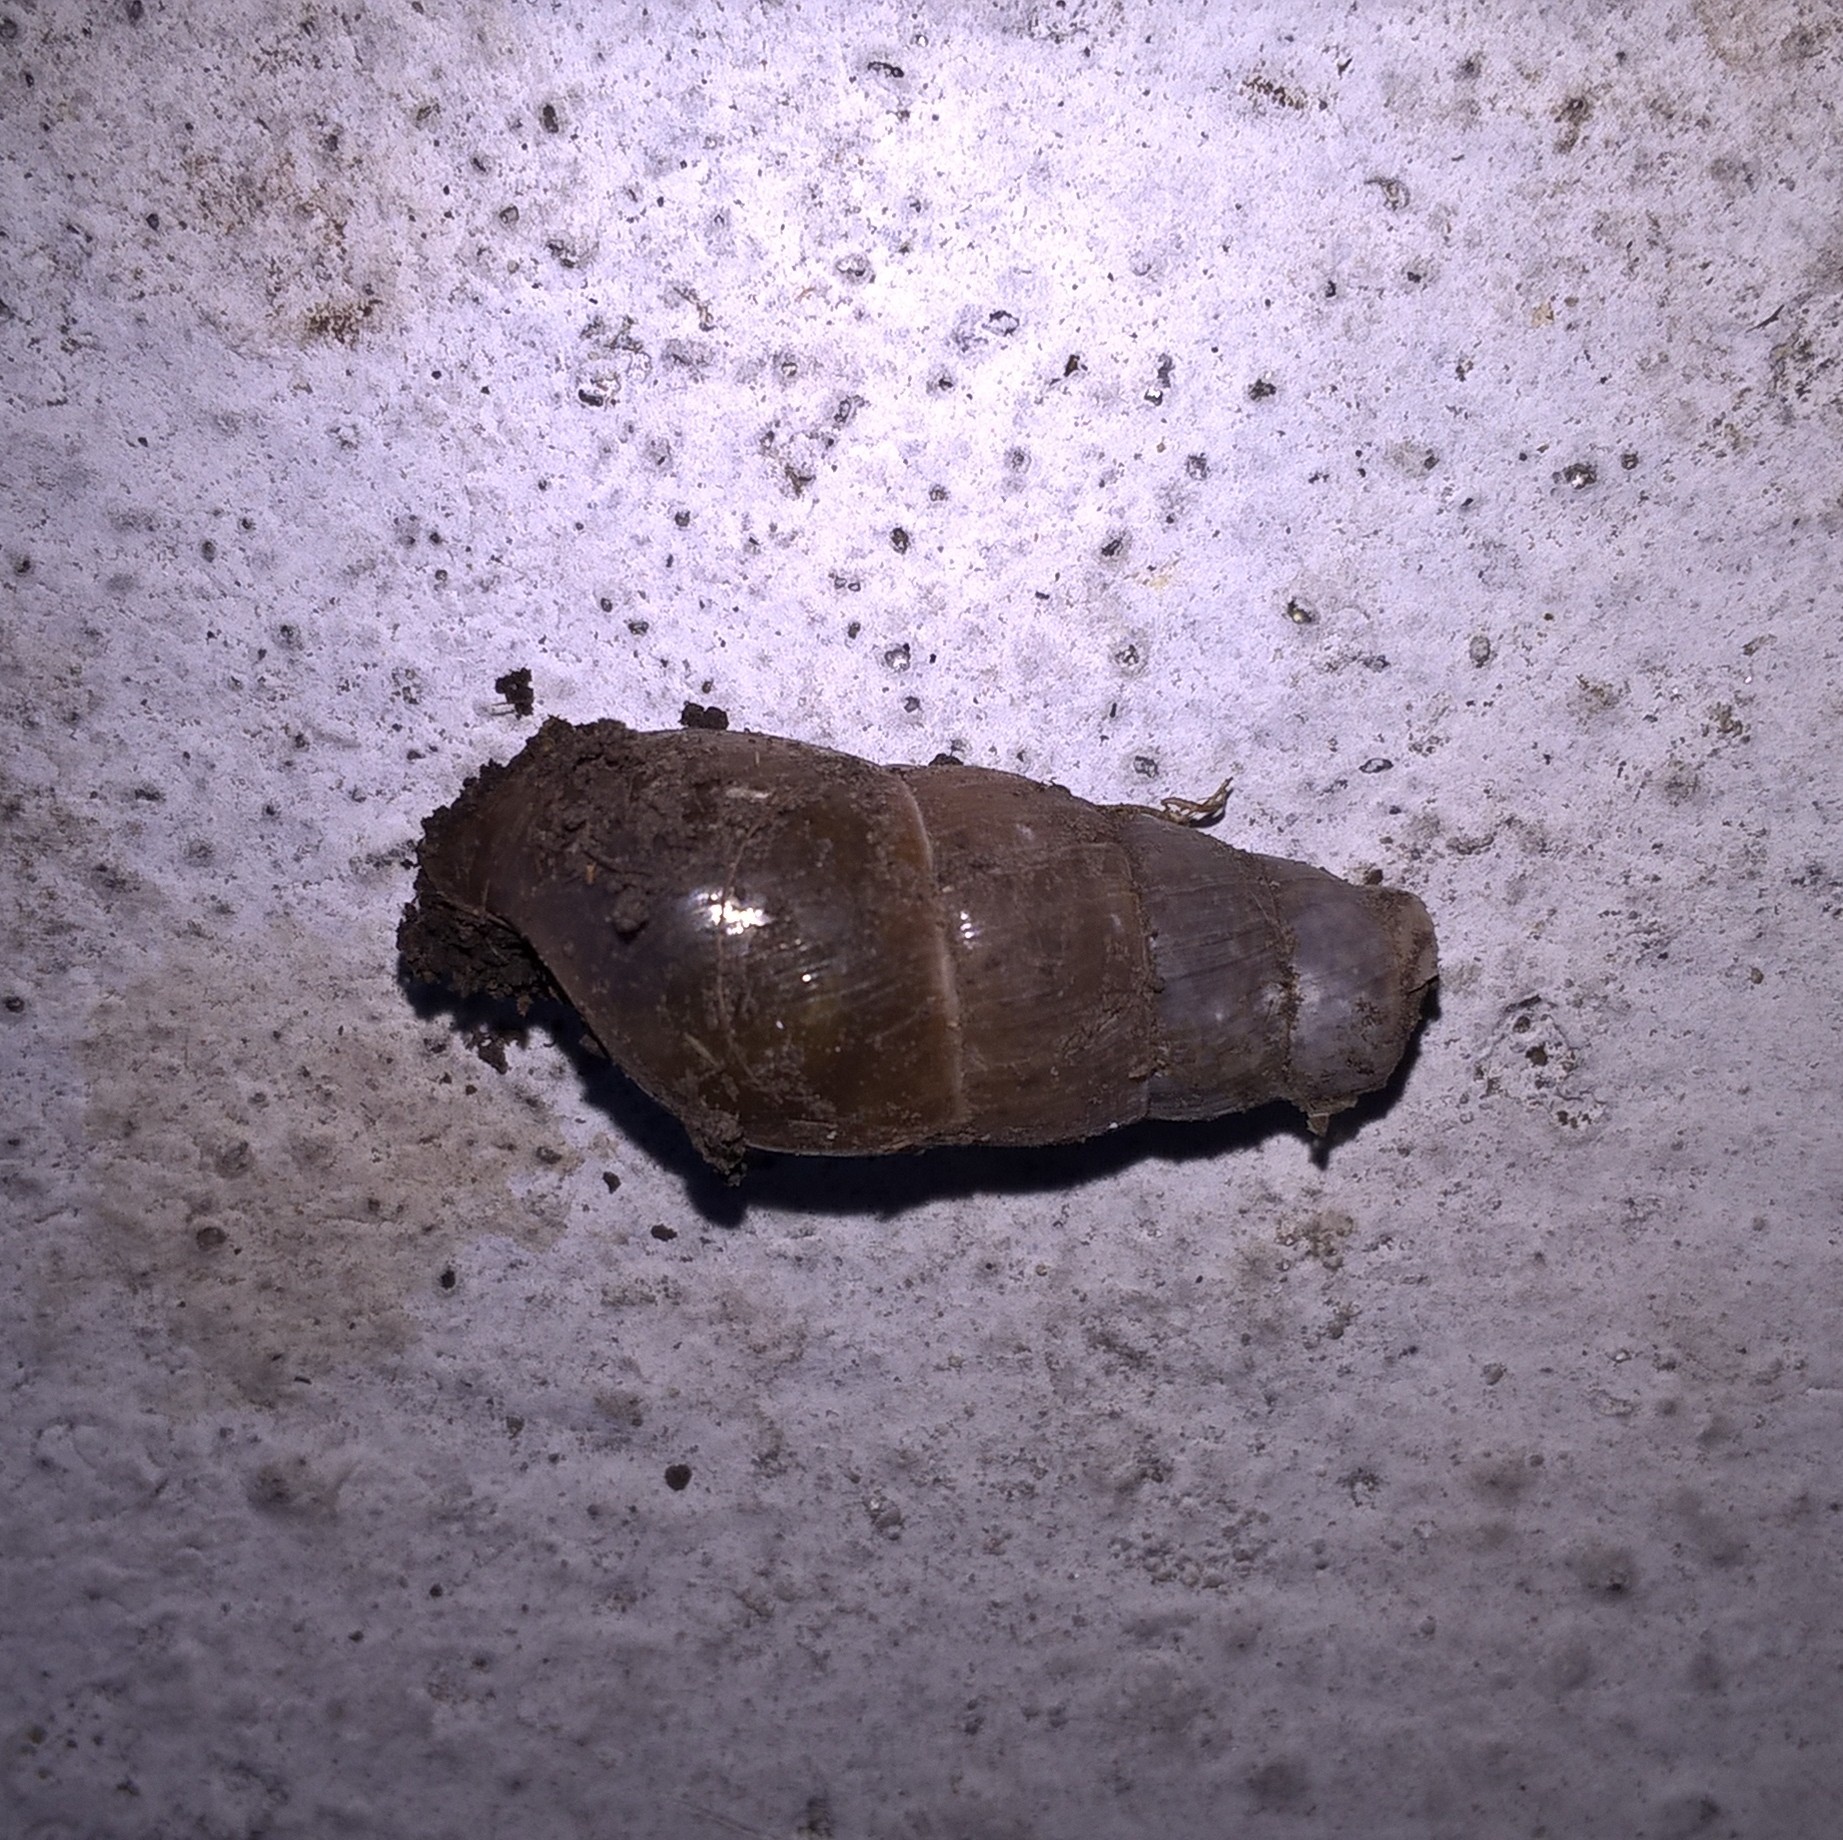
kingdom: Animalia
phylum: Mollusca
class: Gastropoda
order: Stylommatophora
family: Achatinidae
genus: Rumina
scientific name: Rumina decollata
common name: Decollate snail
